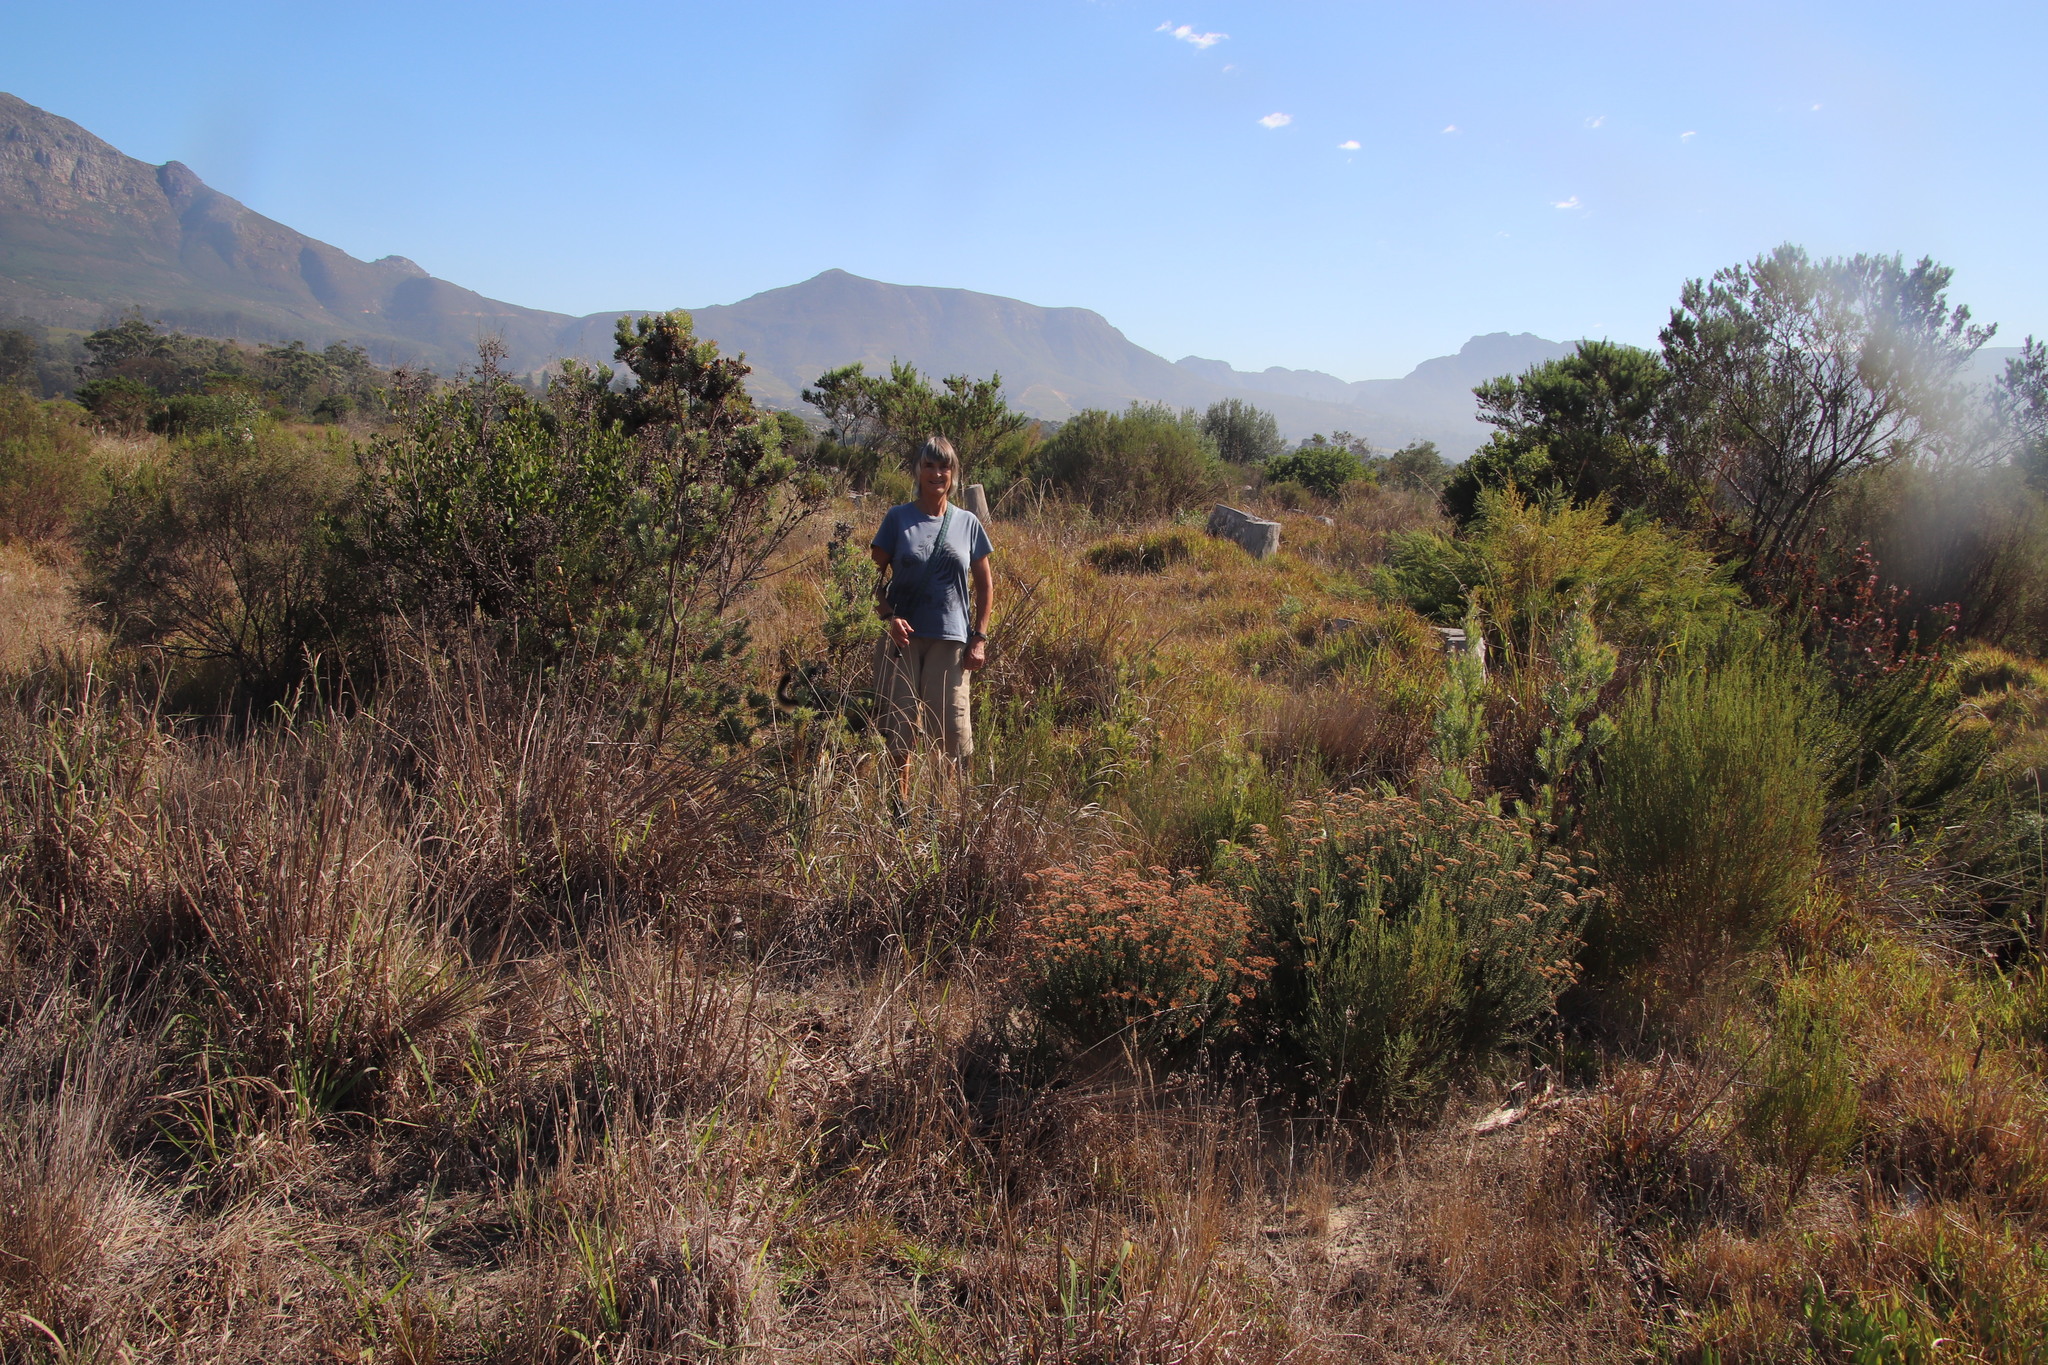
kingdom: Plantae
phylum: Tracheophyta
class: Magnoliopsida
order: Proteales
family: Proteaceae
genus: Leucadendron
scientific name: Leucadendron floridum
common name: Flats conebush
